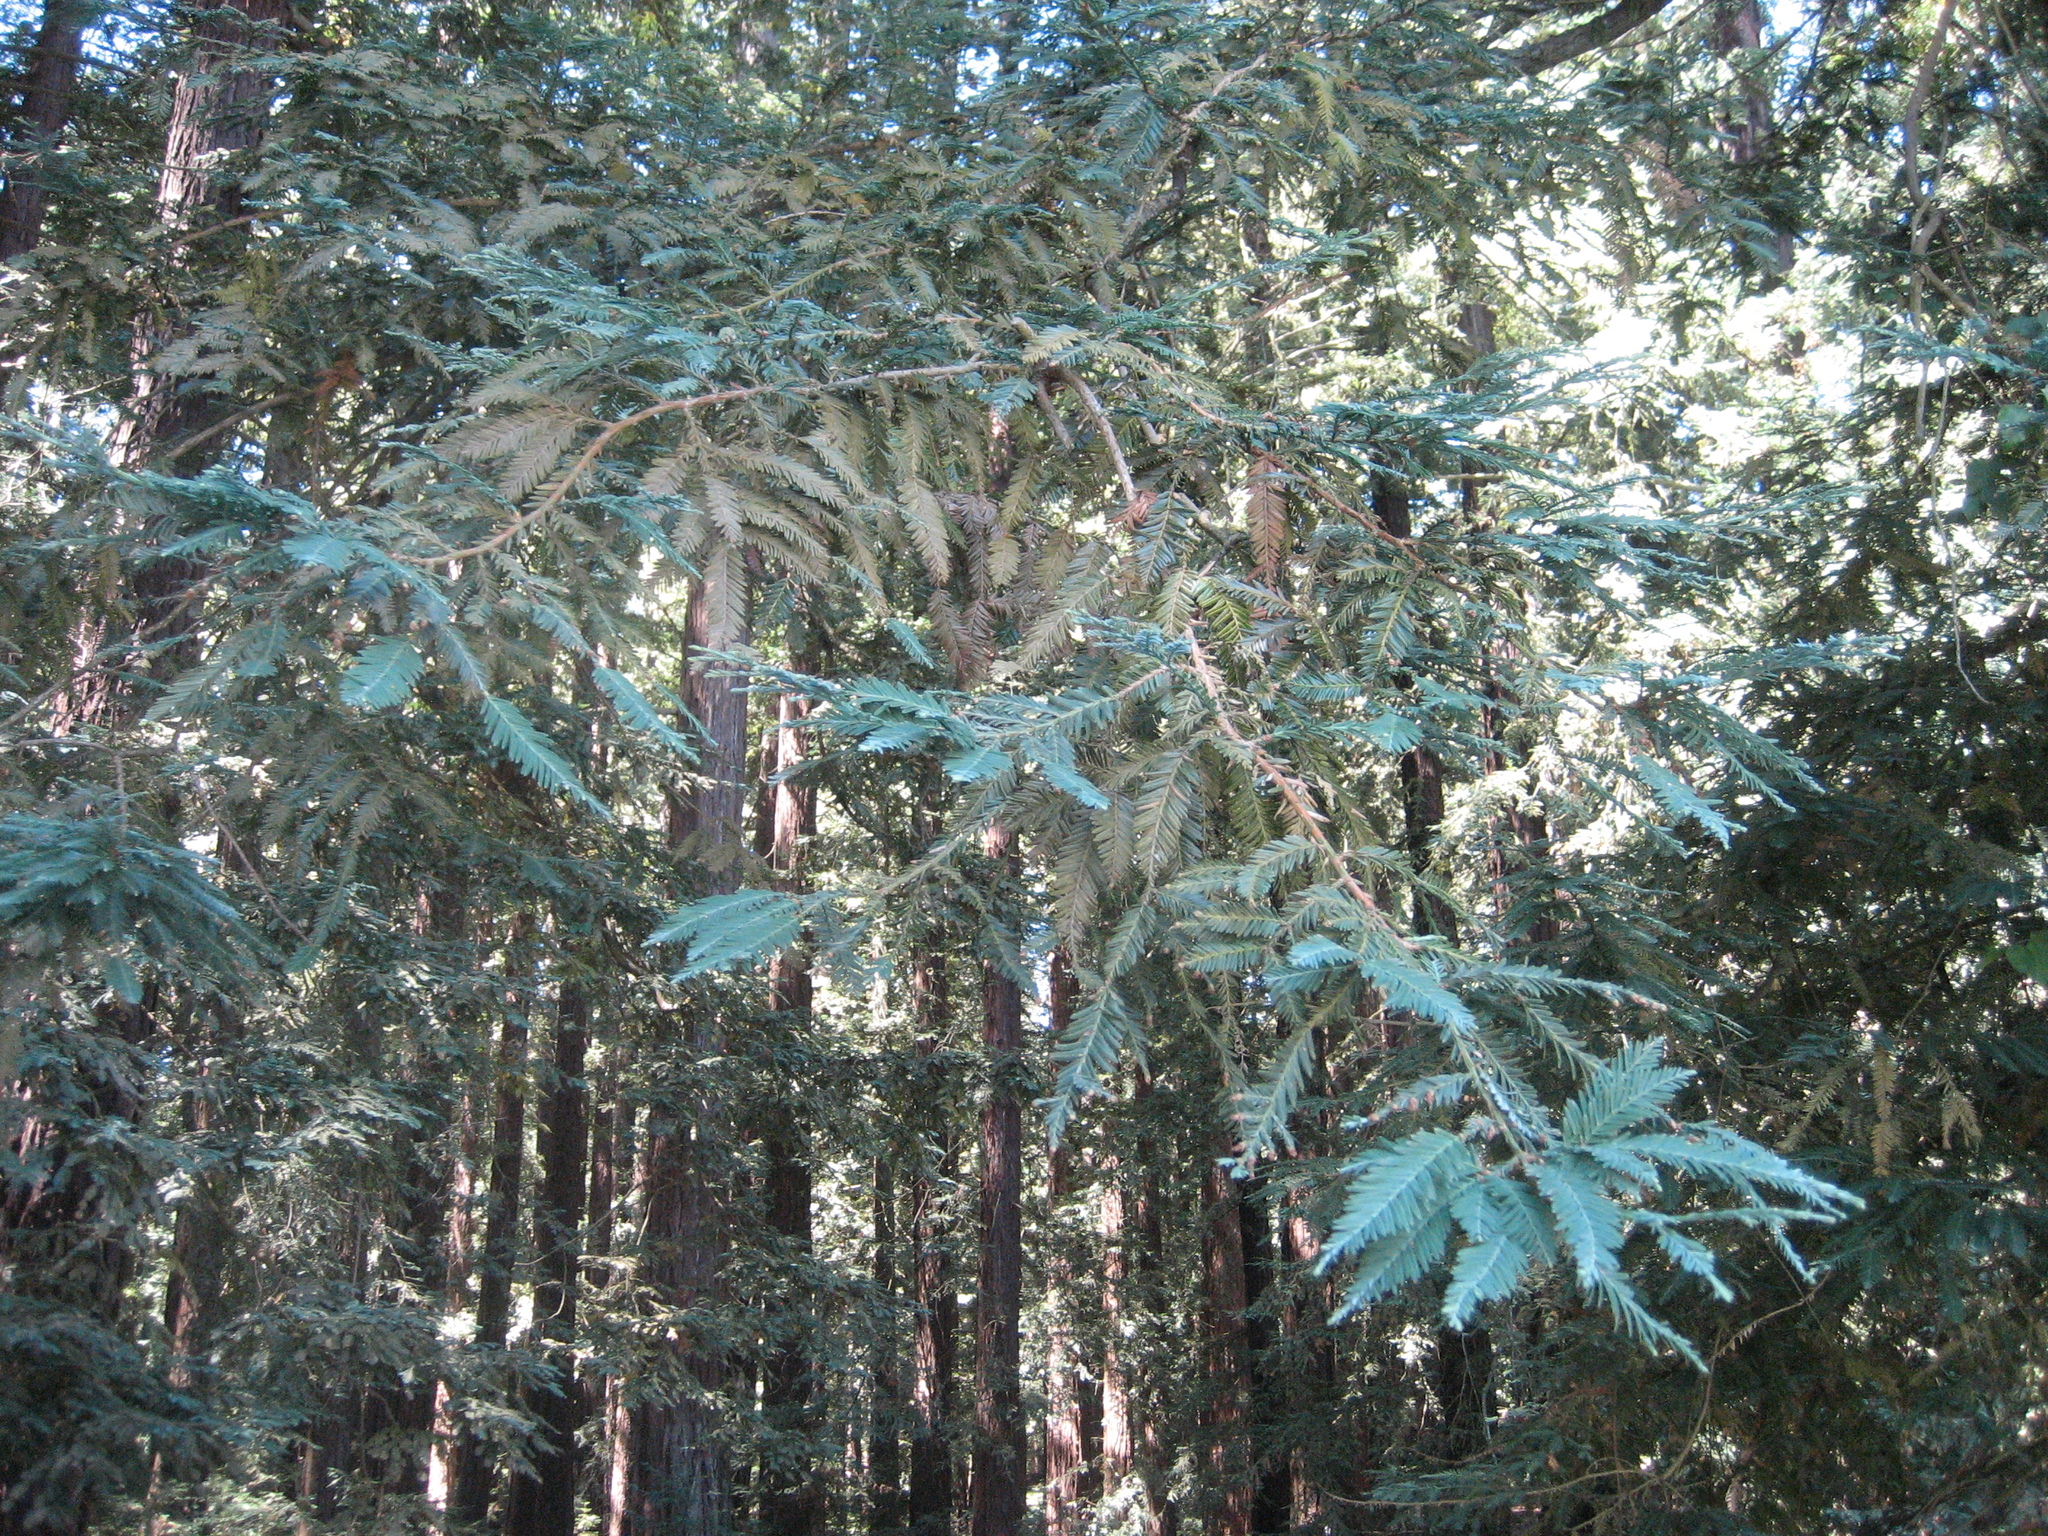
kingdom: Plantae
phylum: Tracheophyta
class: Pinopsida
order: Pinales
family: Cupressaceae
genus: Sequoia
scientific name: Sequoia sempervirens
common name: Coast redwood
